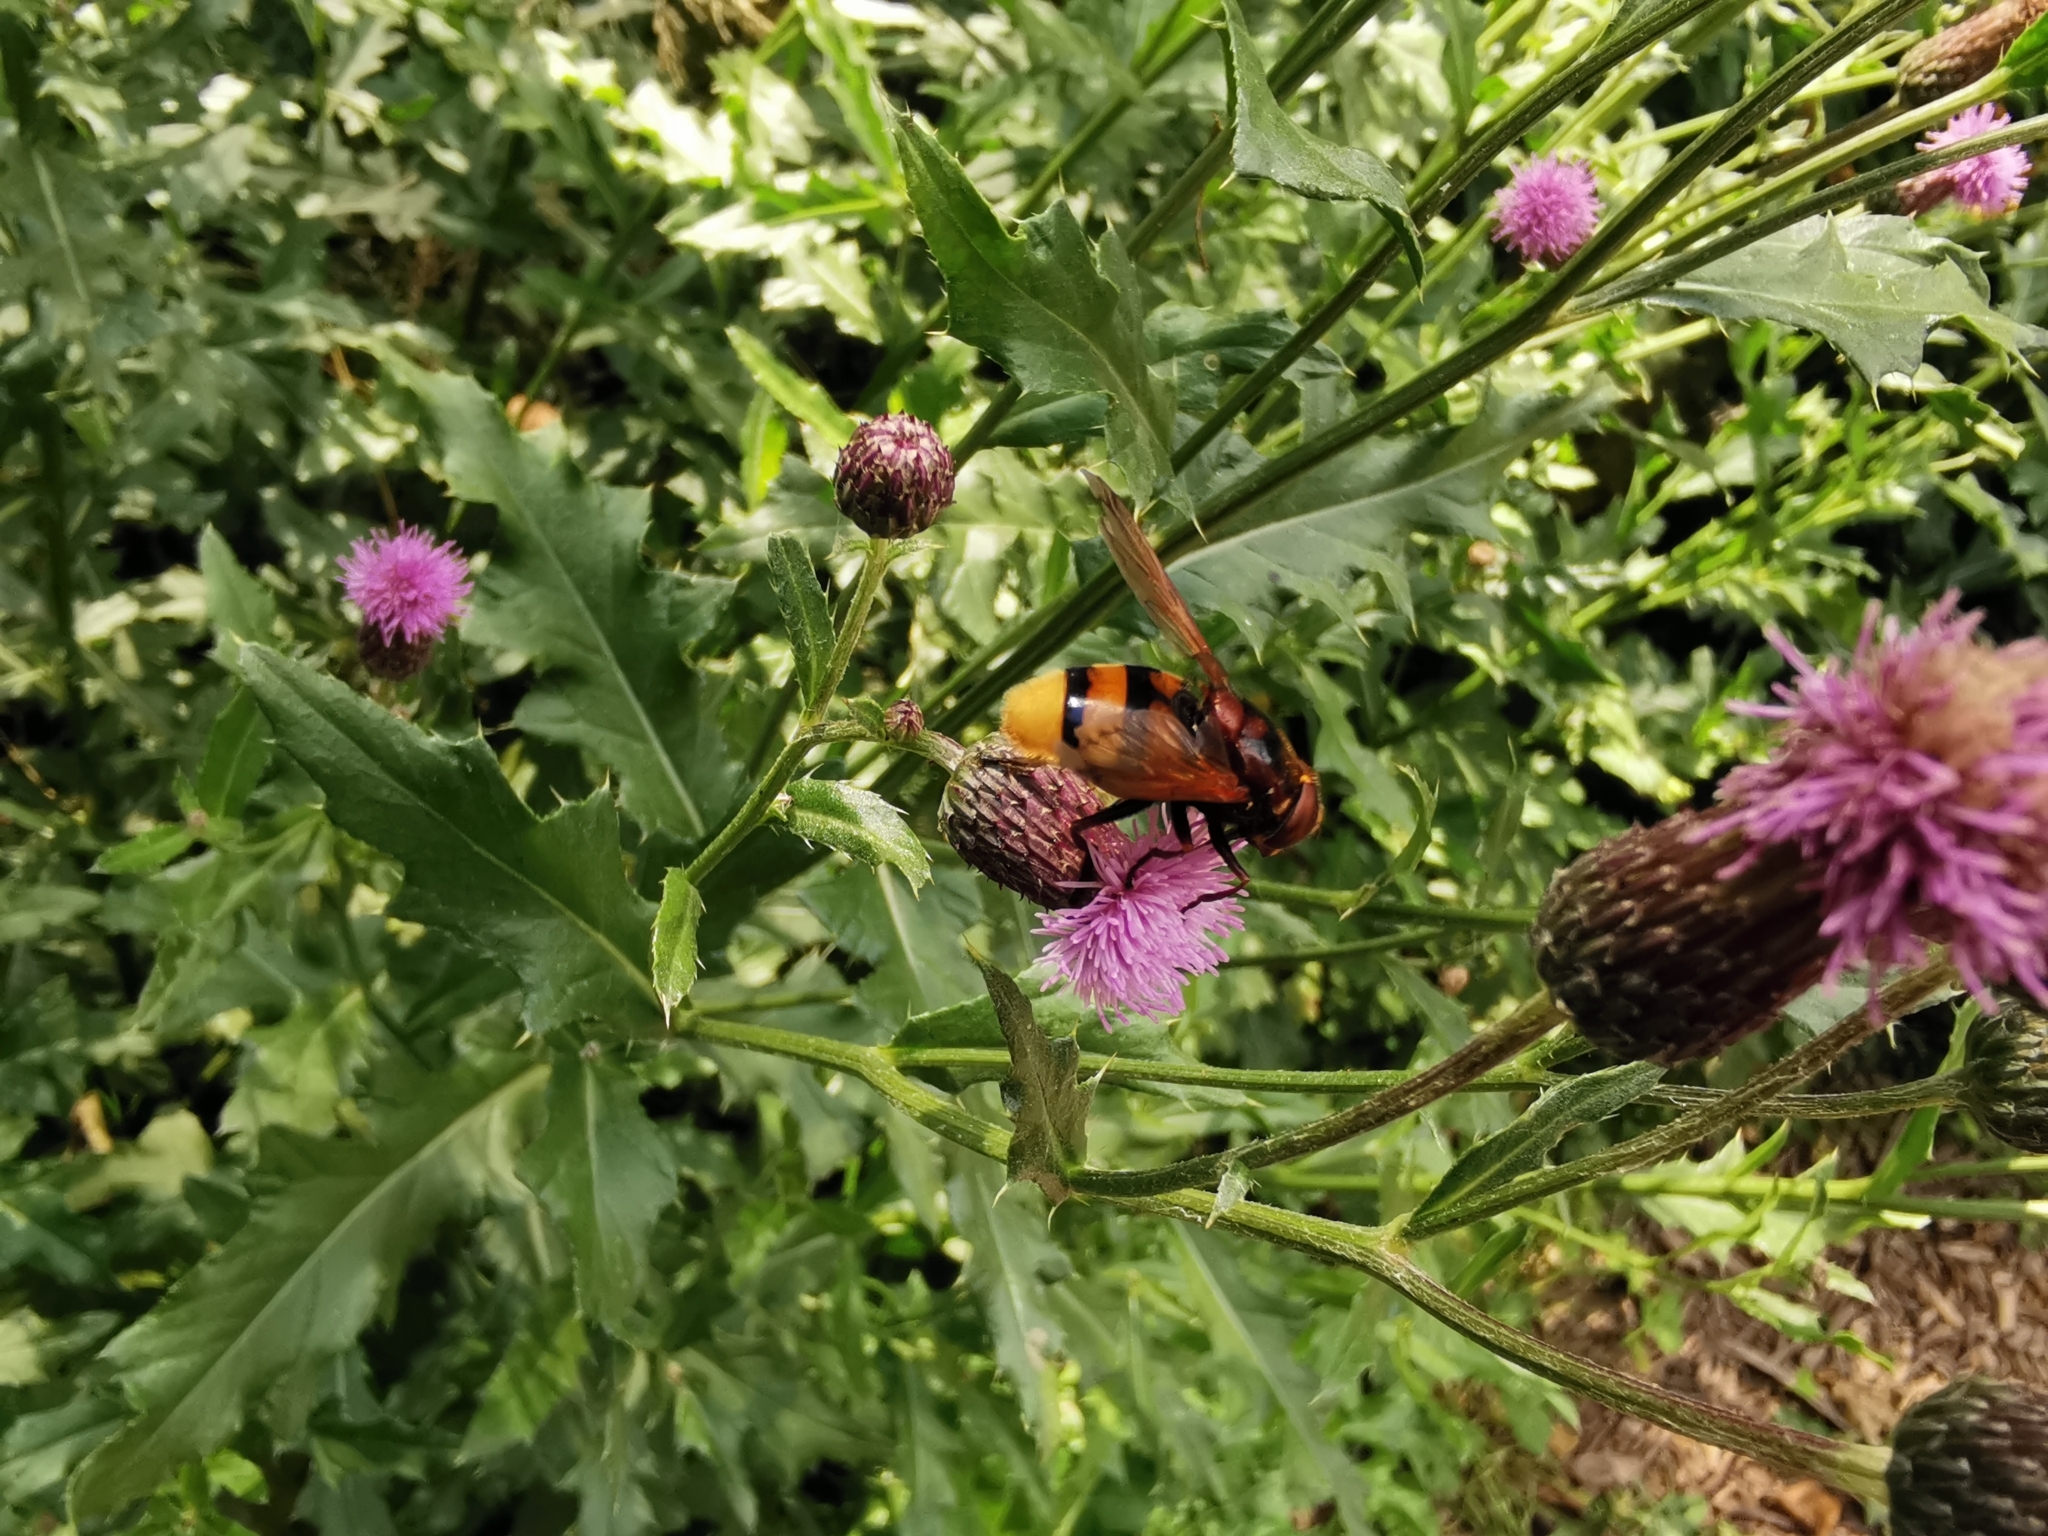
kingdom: Animalia
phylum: Arthropoda
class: Insecta
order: Diptera
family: Syrphidae
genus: Volucella
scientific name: Volucella zonaria
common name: Hornet hoverfly
